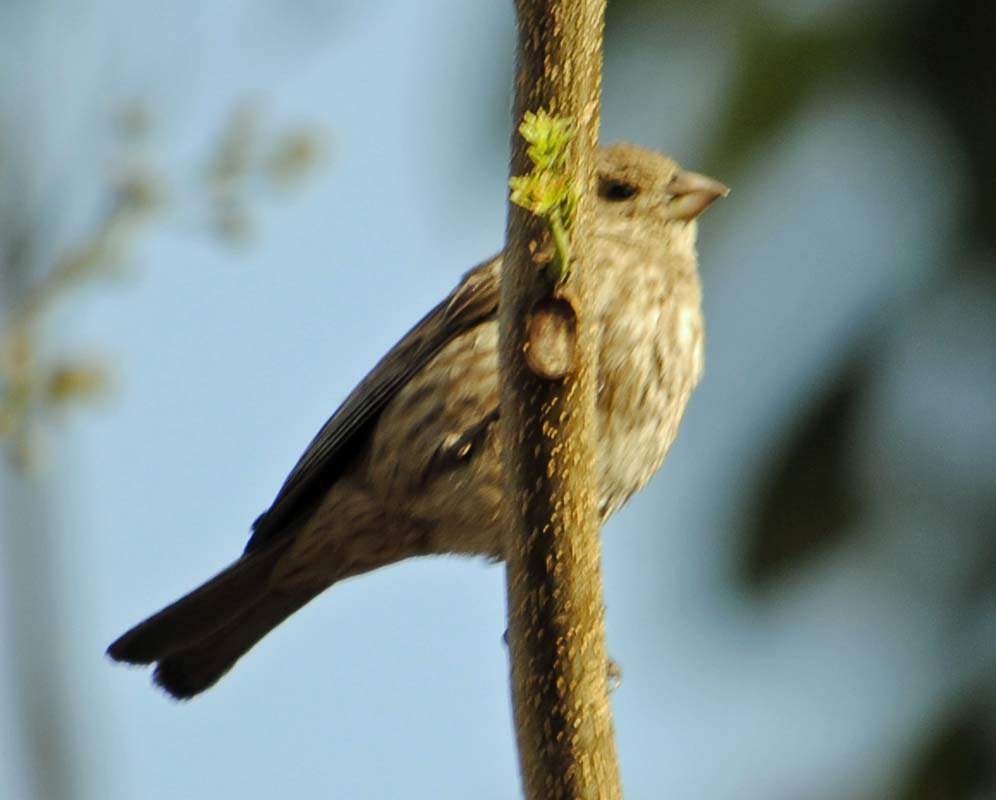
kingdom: Animalia
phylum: Chordata
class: Aves
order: Passeriformes
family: Fringillidae
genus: Haemorhous
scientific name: Haemorhous mexicanus
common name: House finch
